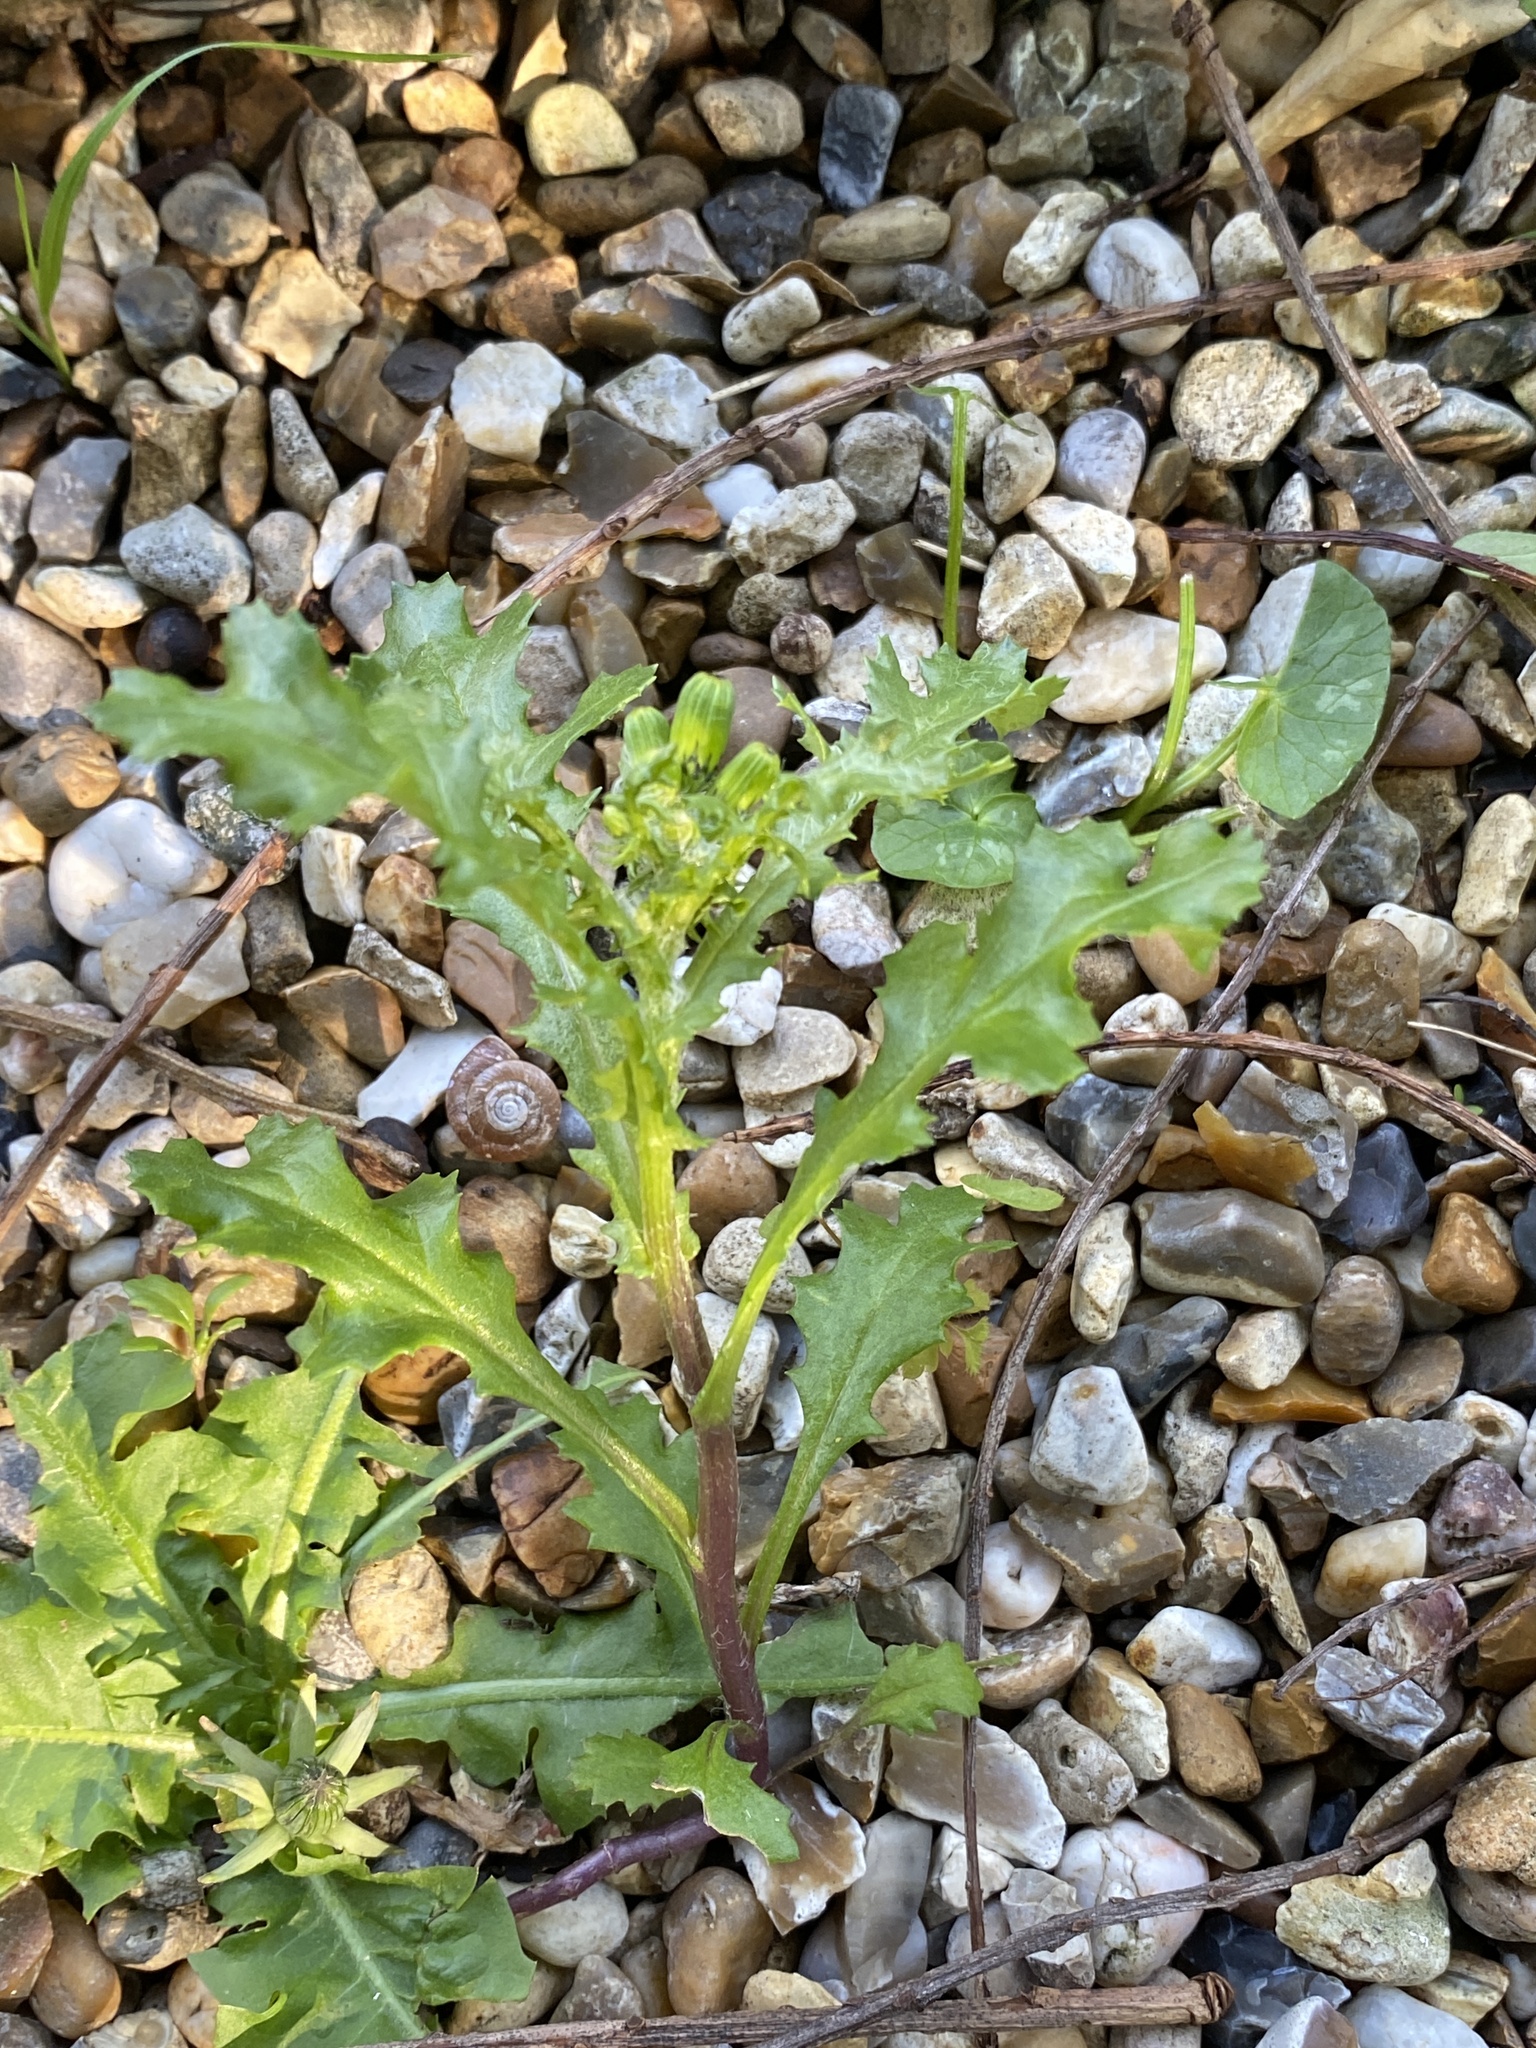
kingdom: Plantae
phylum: Tracheophyta
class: Magnoliopsida
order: Asterales
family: Asteraceae
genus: Senecio
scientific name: Senecio vulgaris
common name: Old-man-in-the-spring
